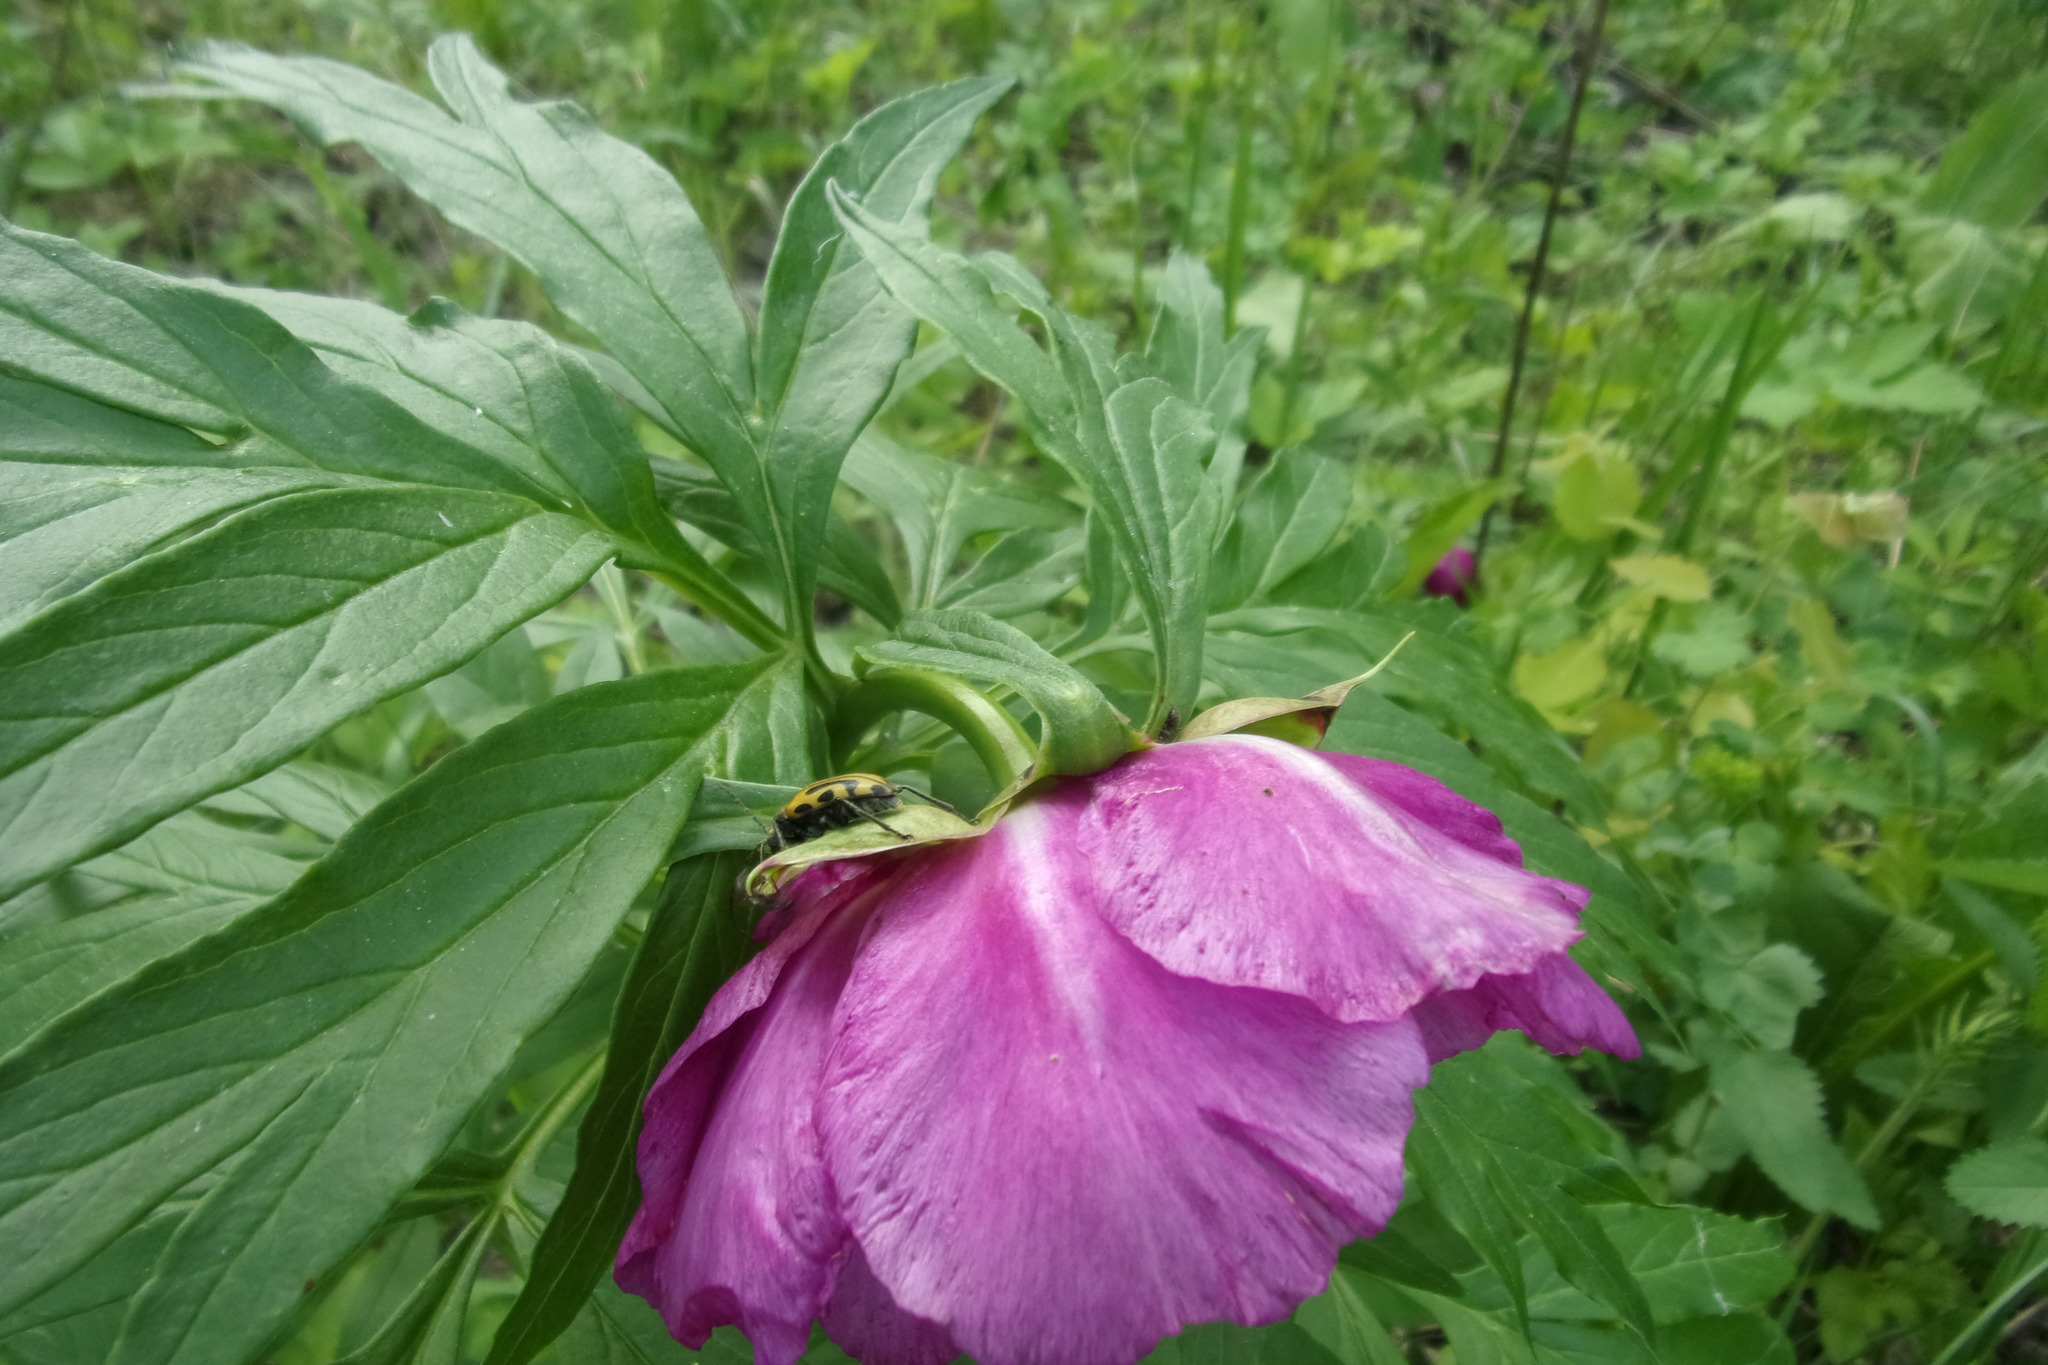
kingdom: Plantae
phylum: Tracheophyta
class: Magnoliopsida
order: Saxifragales
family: Paeoniaceae
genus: Paeonia
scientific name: Paeonia anomala
